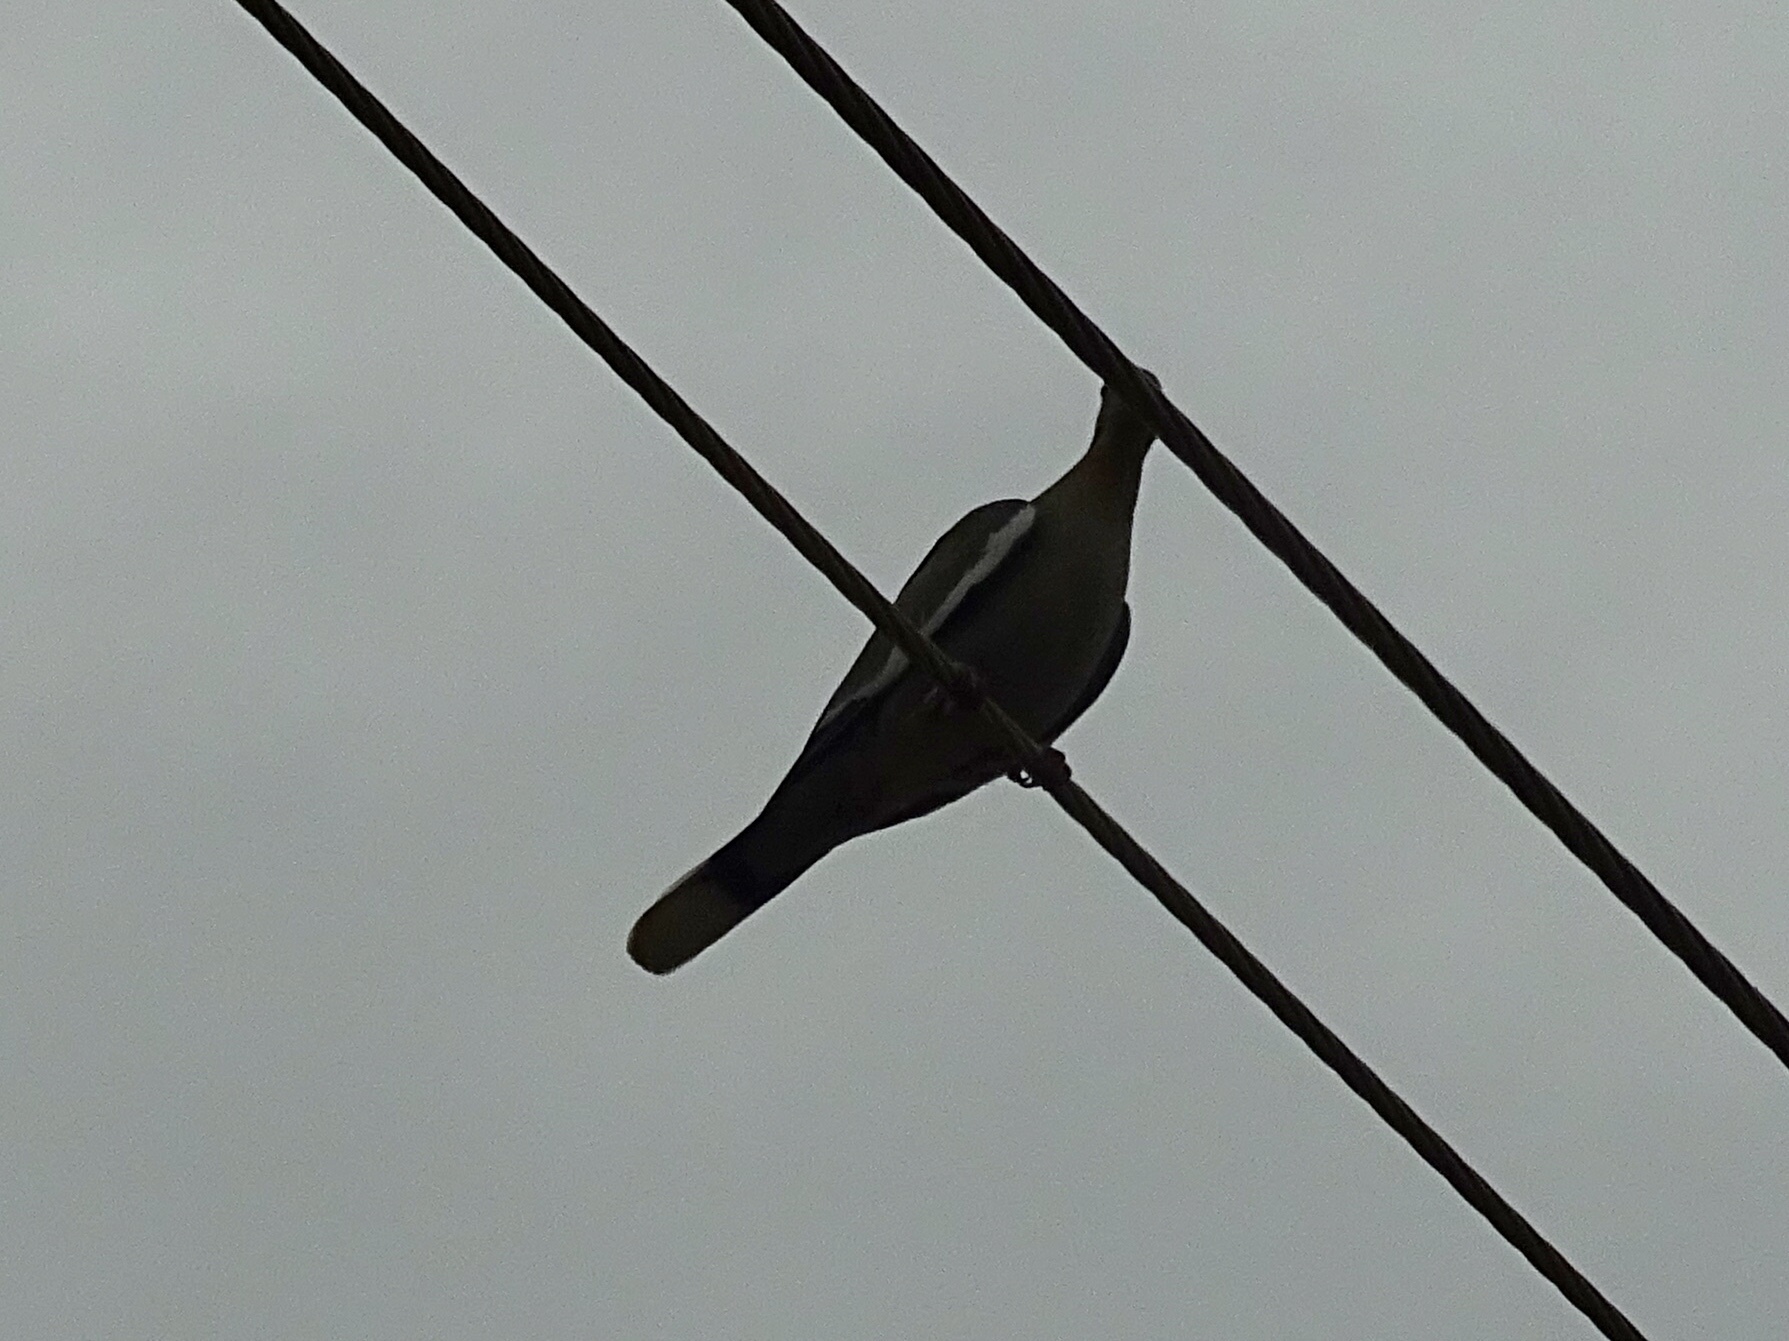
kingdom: Animalia
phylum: Chordata
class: Aves
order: Columbiformes
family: Columbidae
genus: Zenaida
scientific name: Zenaida asiatica
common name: White-winged dove
